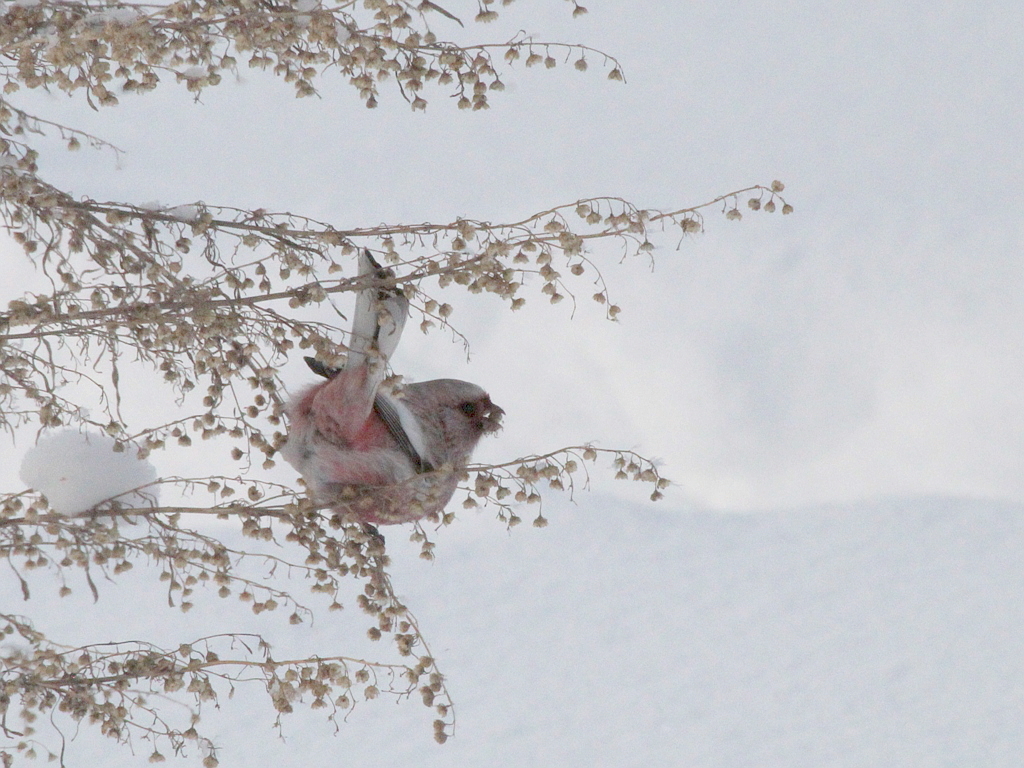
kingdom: Animalia
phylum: Chordata
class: Aves
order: Passeriformes
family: Fringillidae
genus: Carpodacus
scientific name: Carpodacus sibiricus
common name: Long-tailed rosefinch
